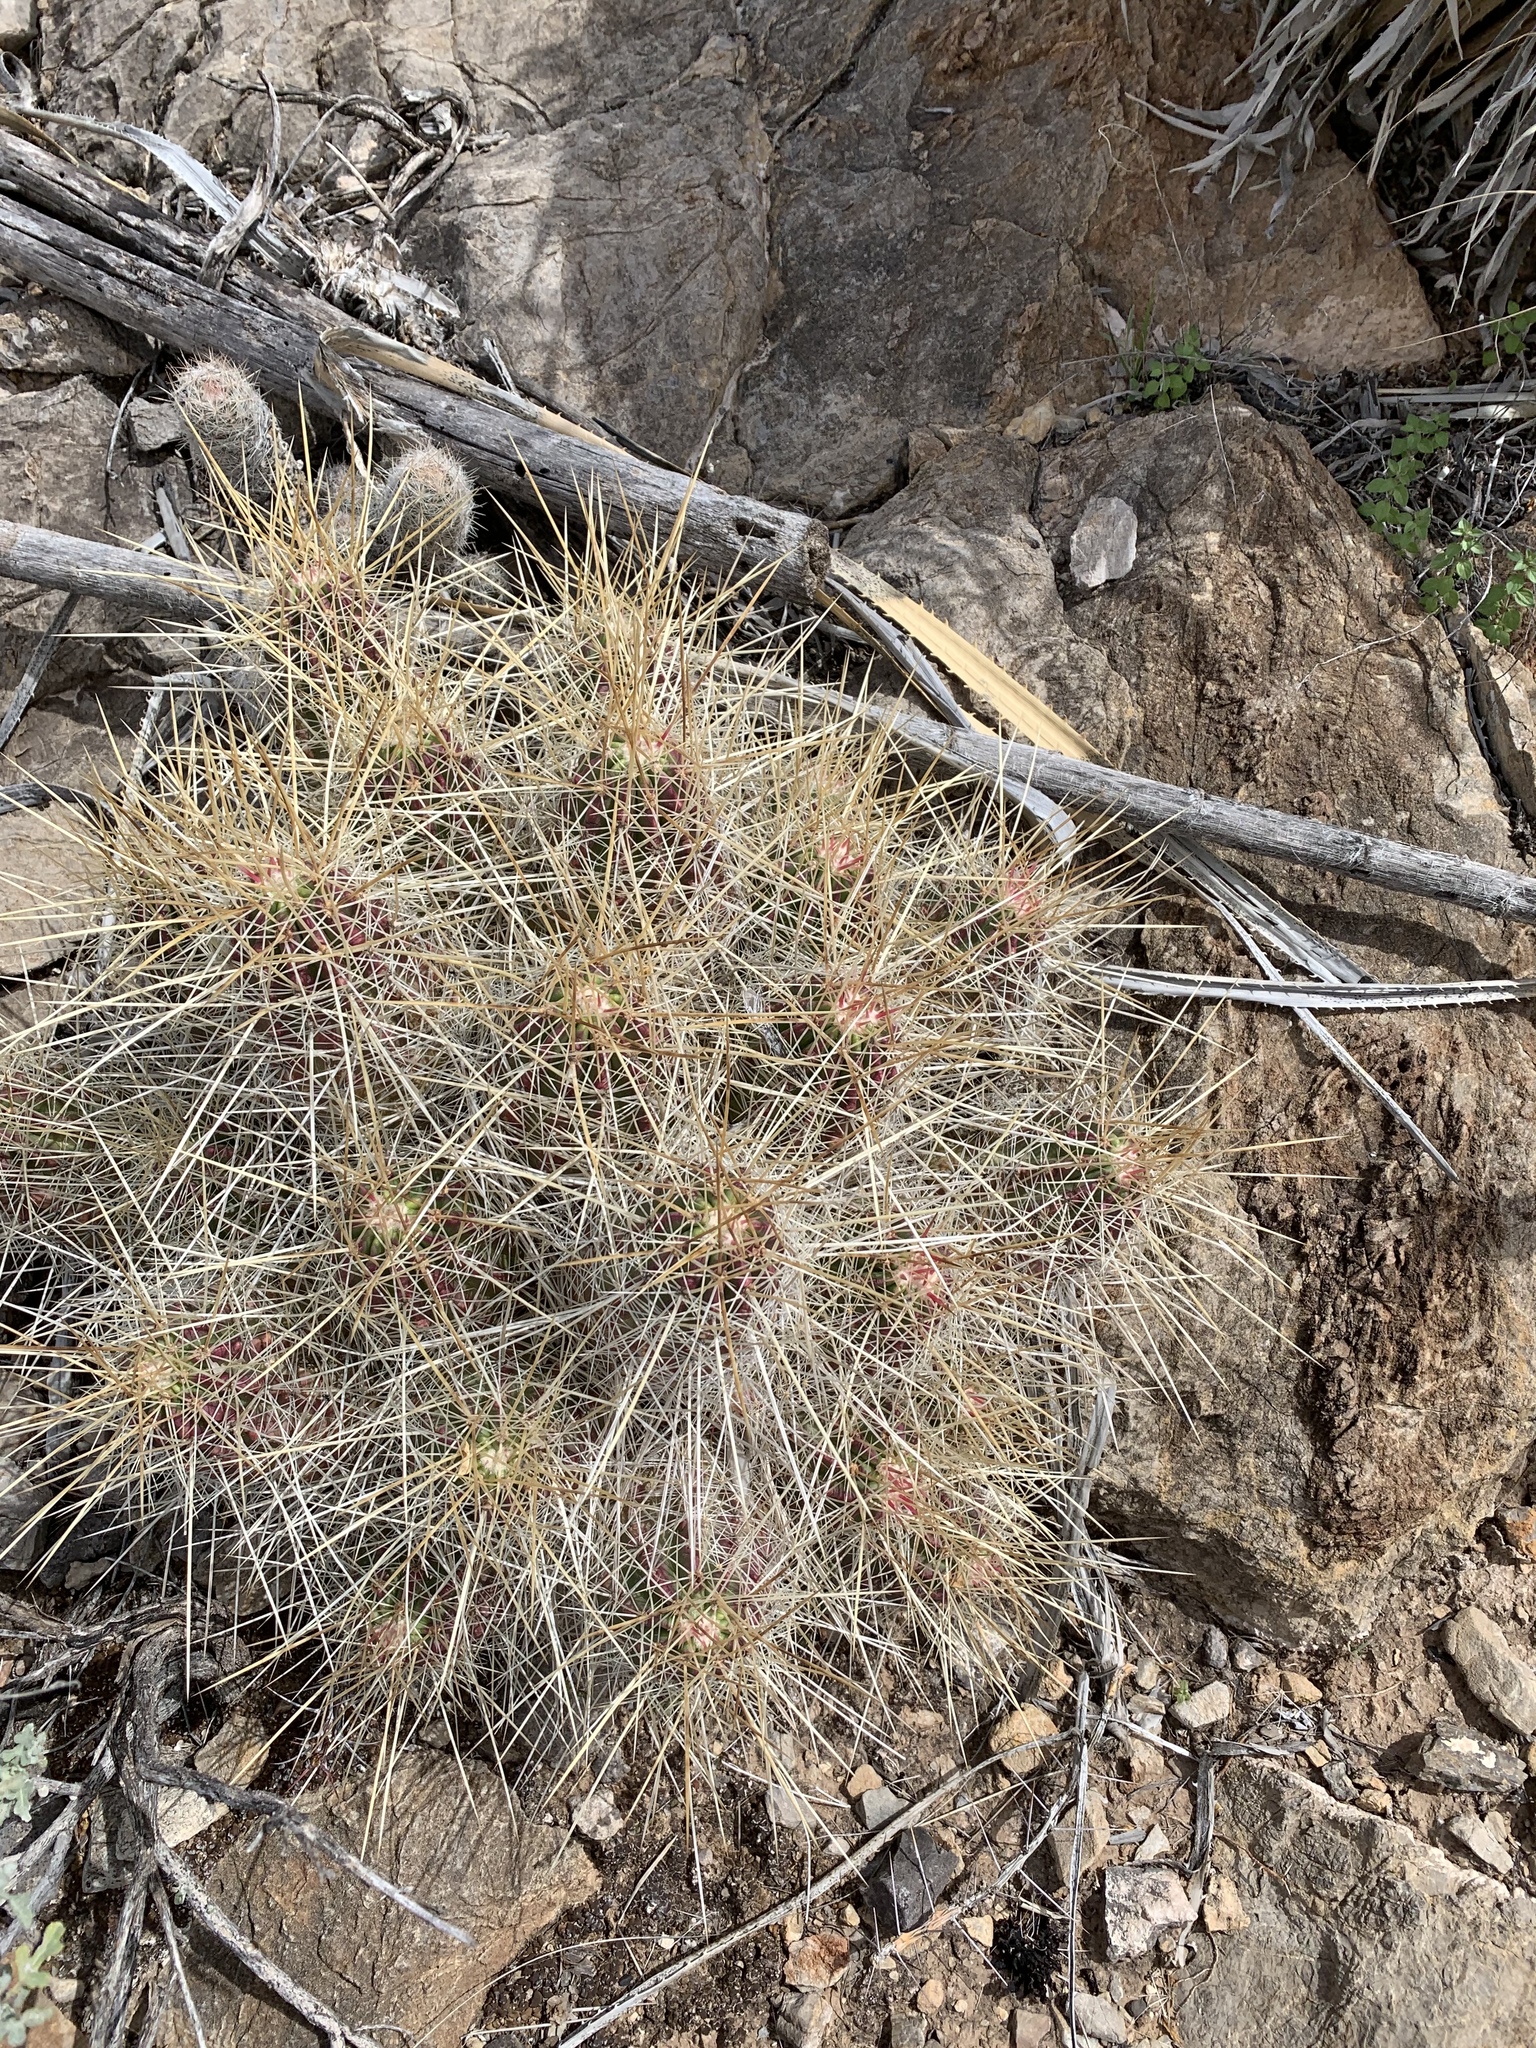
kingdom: Plantae
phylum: Tracheophyta
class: Magnoliopsida
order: Caryophyllales
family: Cactaceae
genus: Echinocereus
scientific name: Echinocereus stramineus
